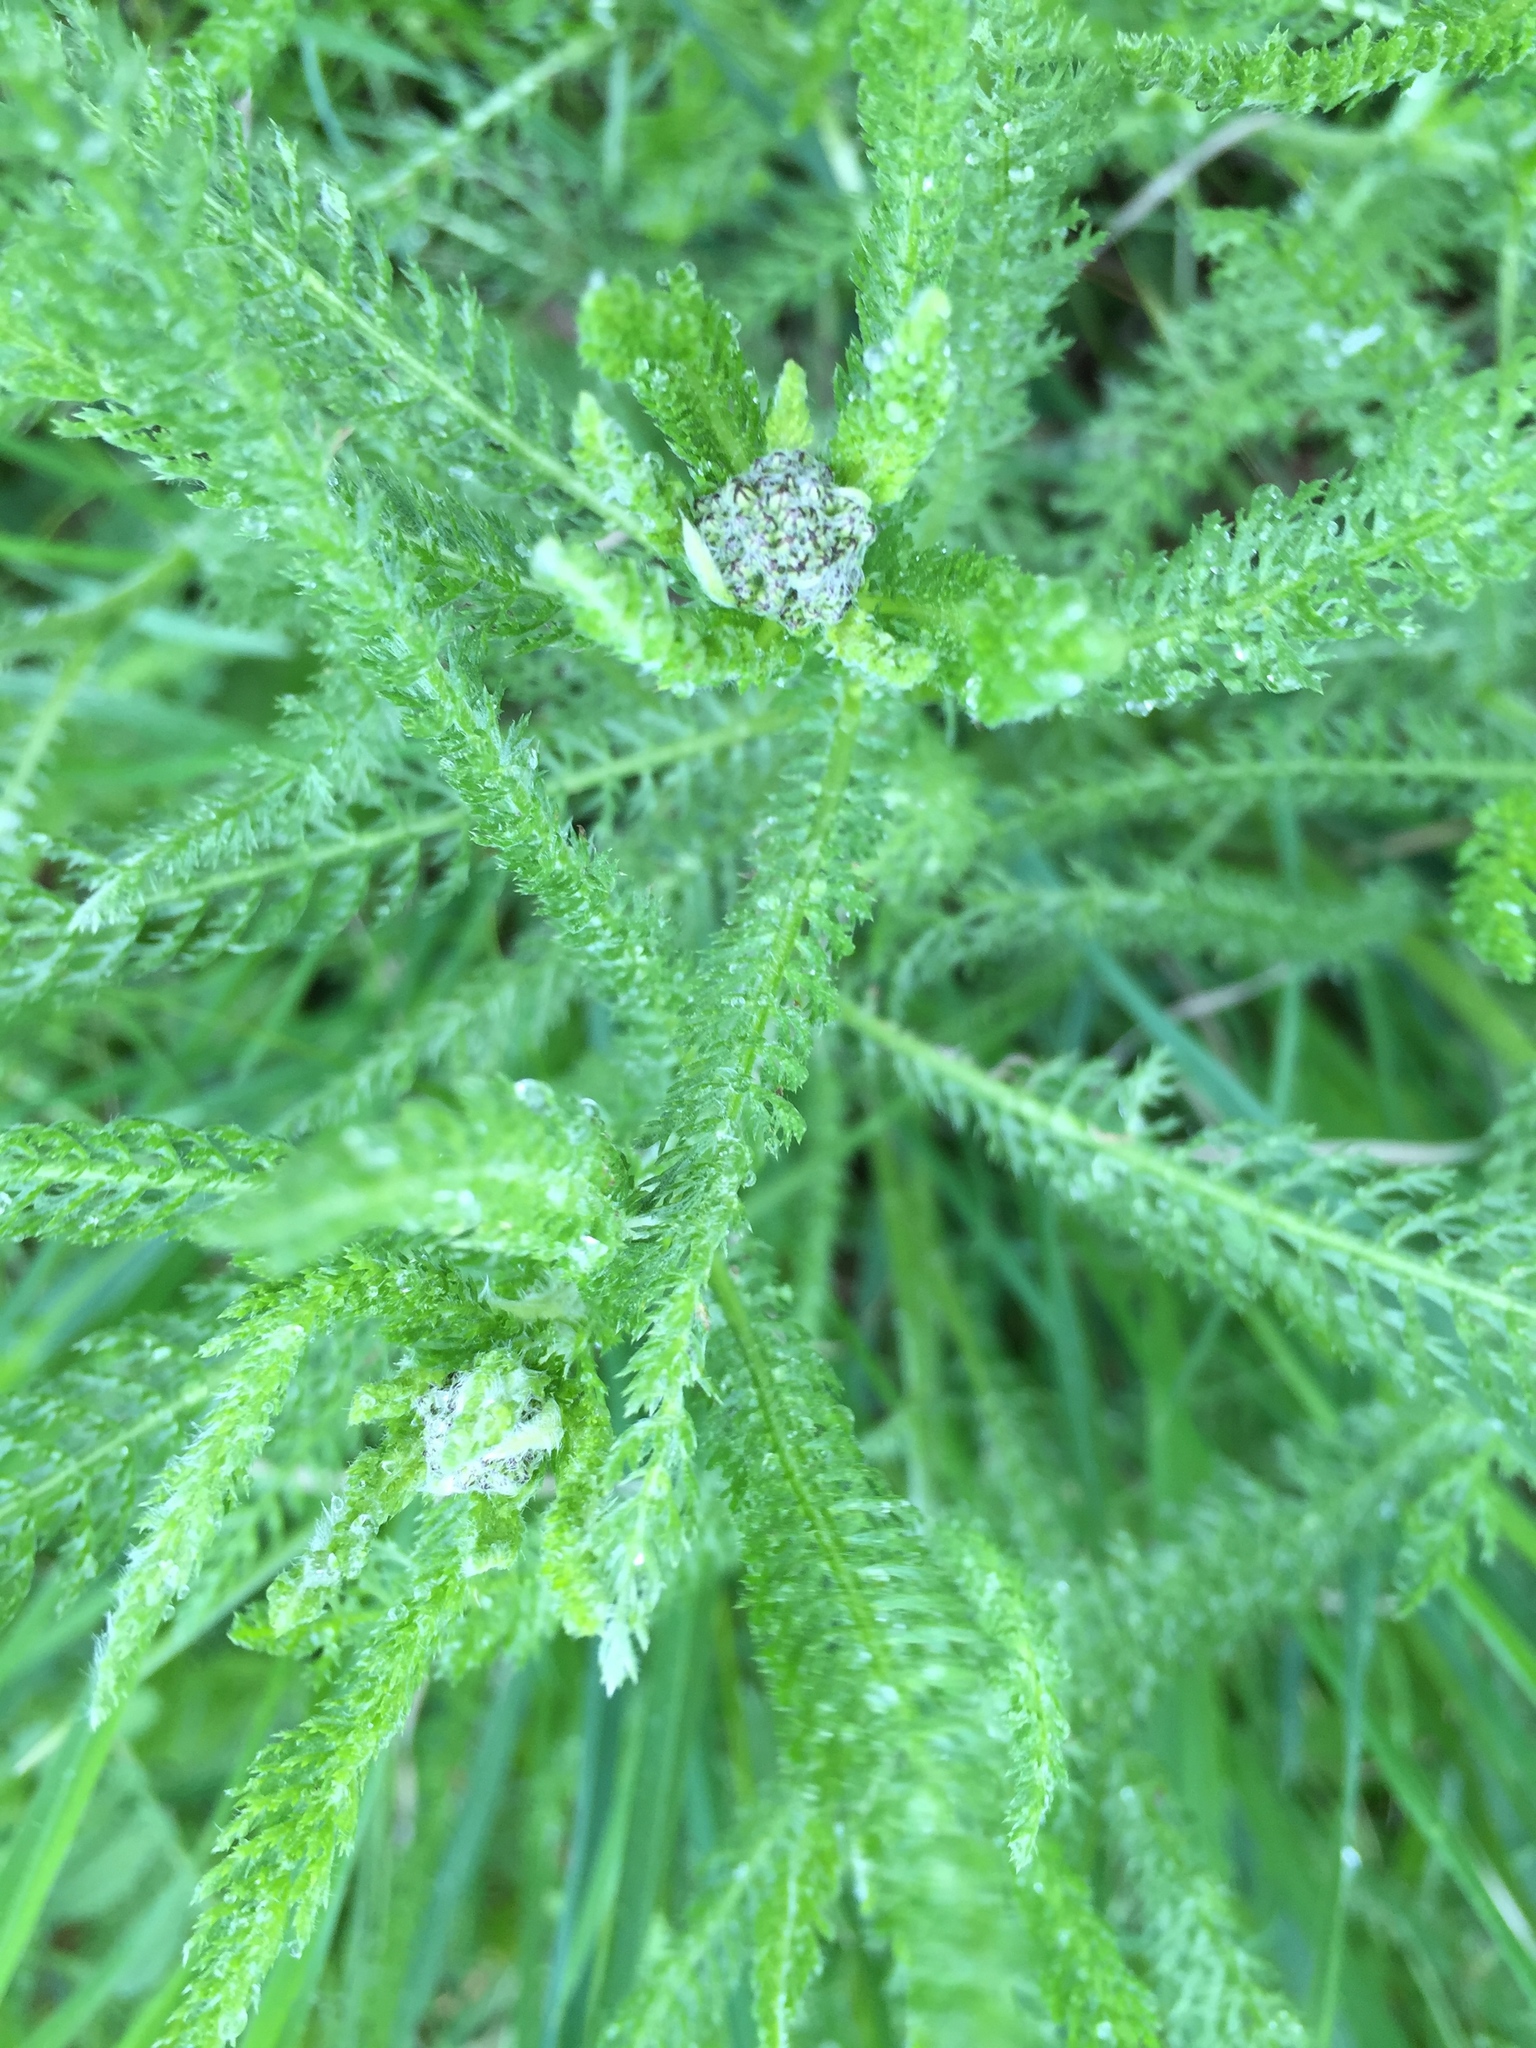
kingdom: Plantae
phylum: Tracheophyta
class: Magnoliopsida
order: Asterales
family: Asteraceae
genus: Achillea
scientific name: Achillea millefolium
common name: Yarrow
